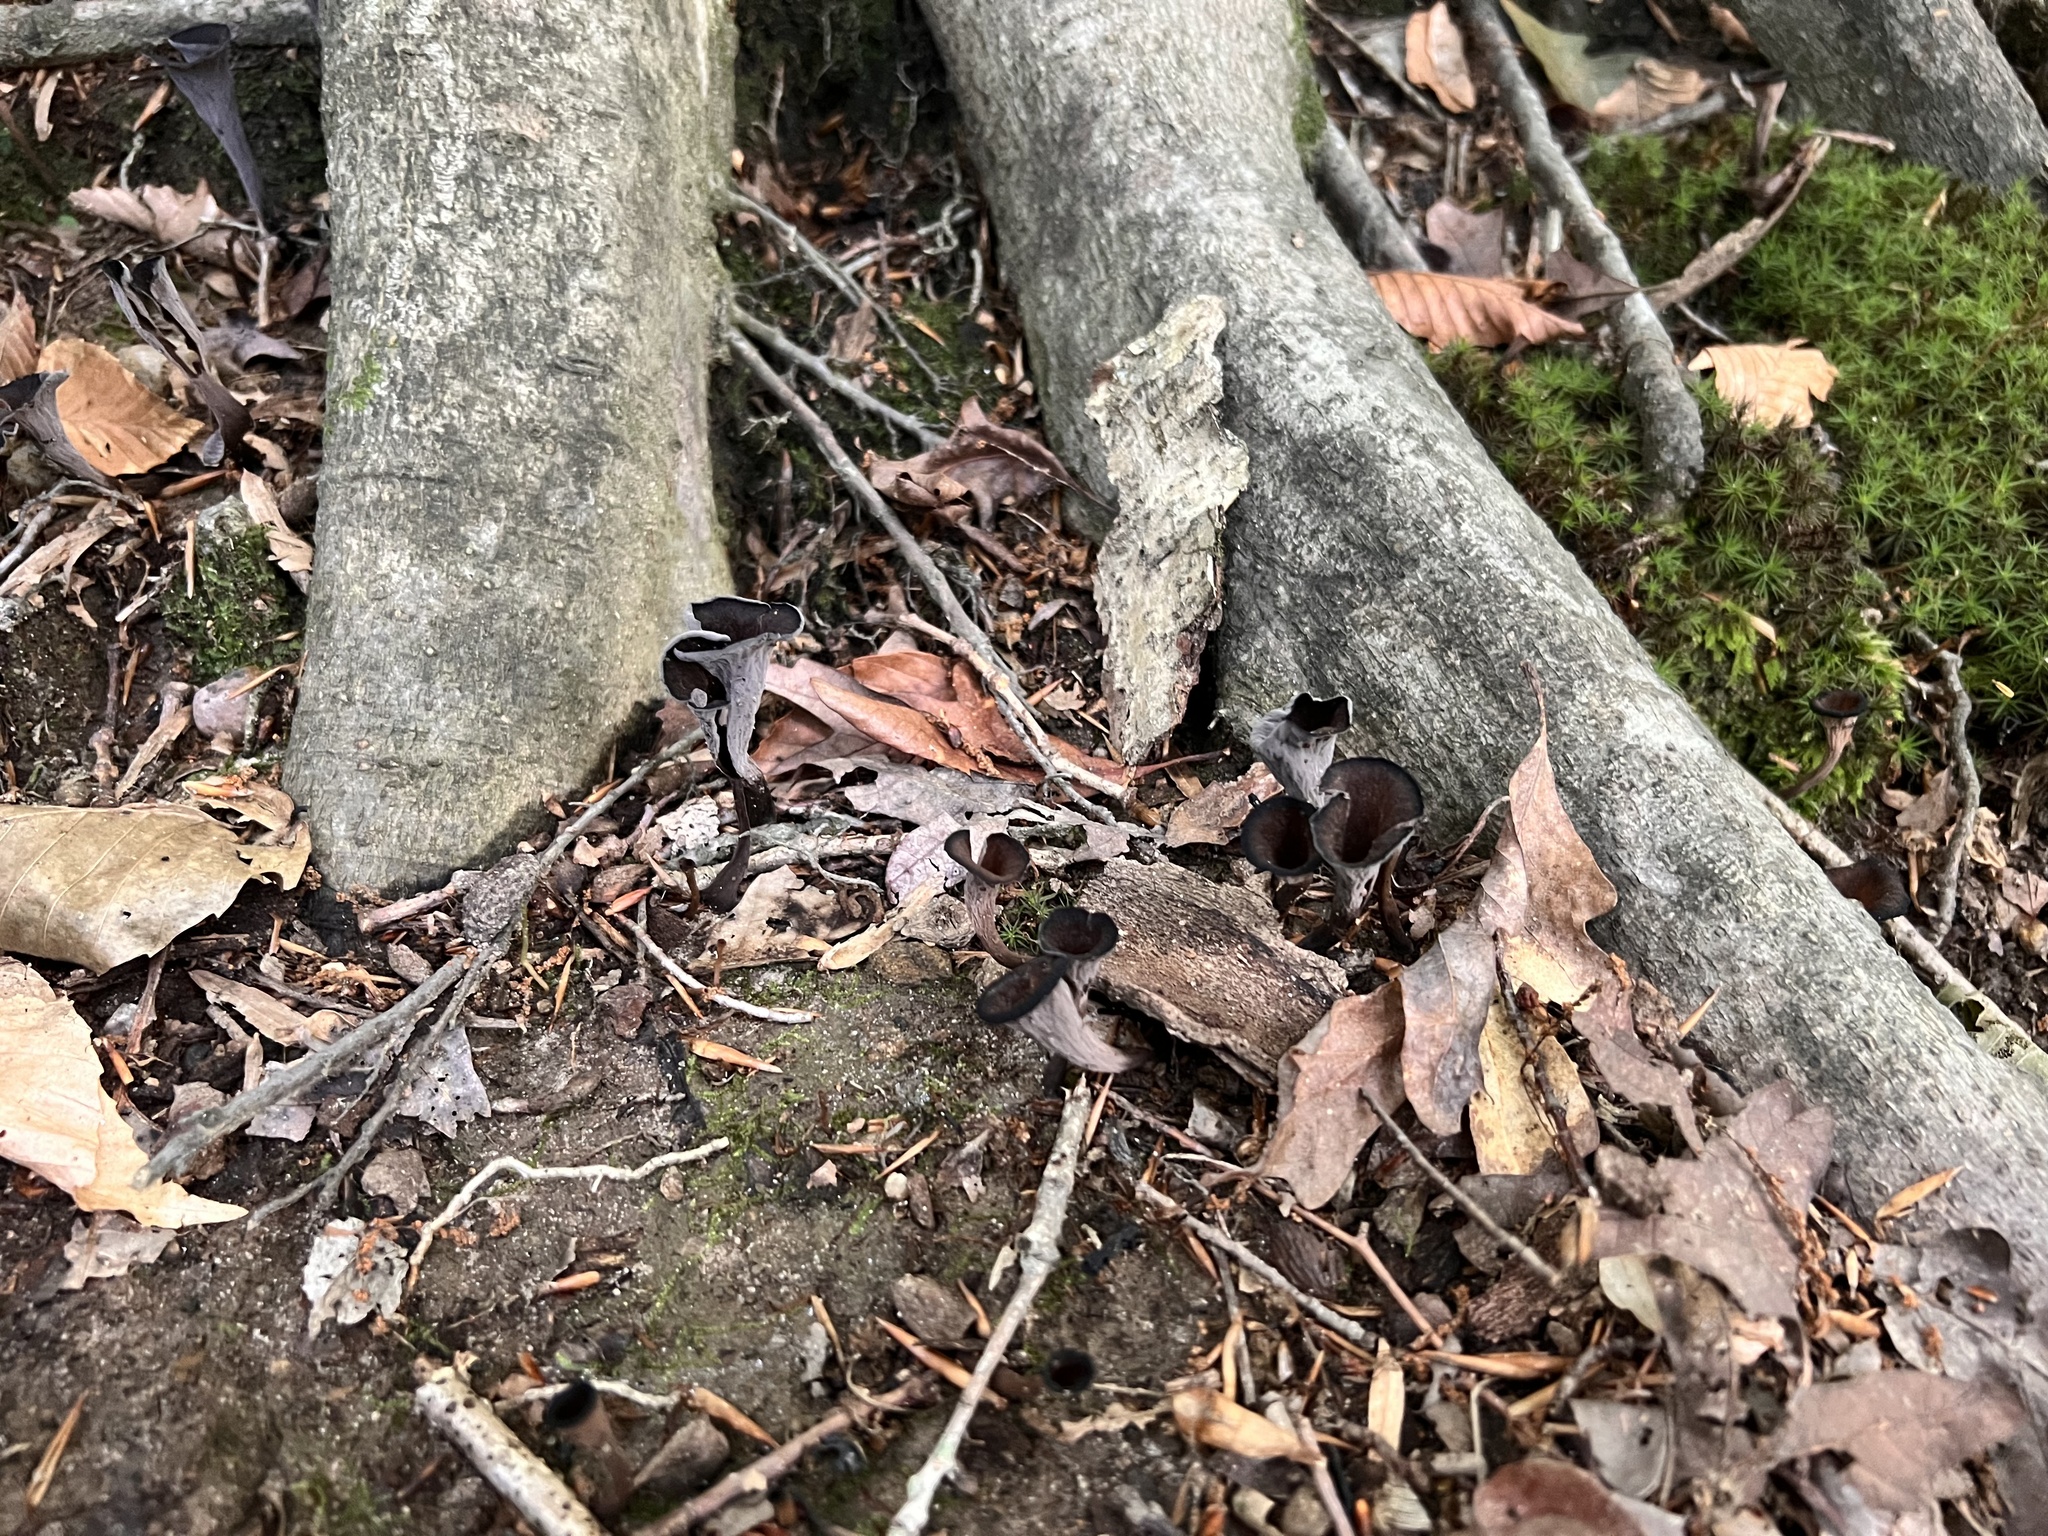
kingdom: Fungi
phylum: Basidiomycota
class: Agaricomycetes
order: Cantharellales
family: Hydnaceae
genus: Craterellus
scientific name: Craterellus cornucopioides
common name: Horn of plenty
